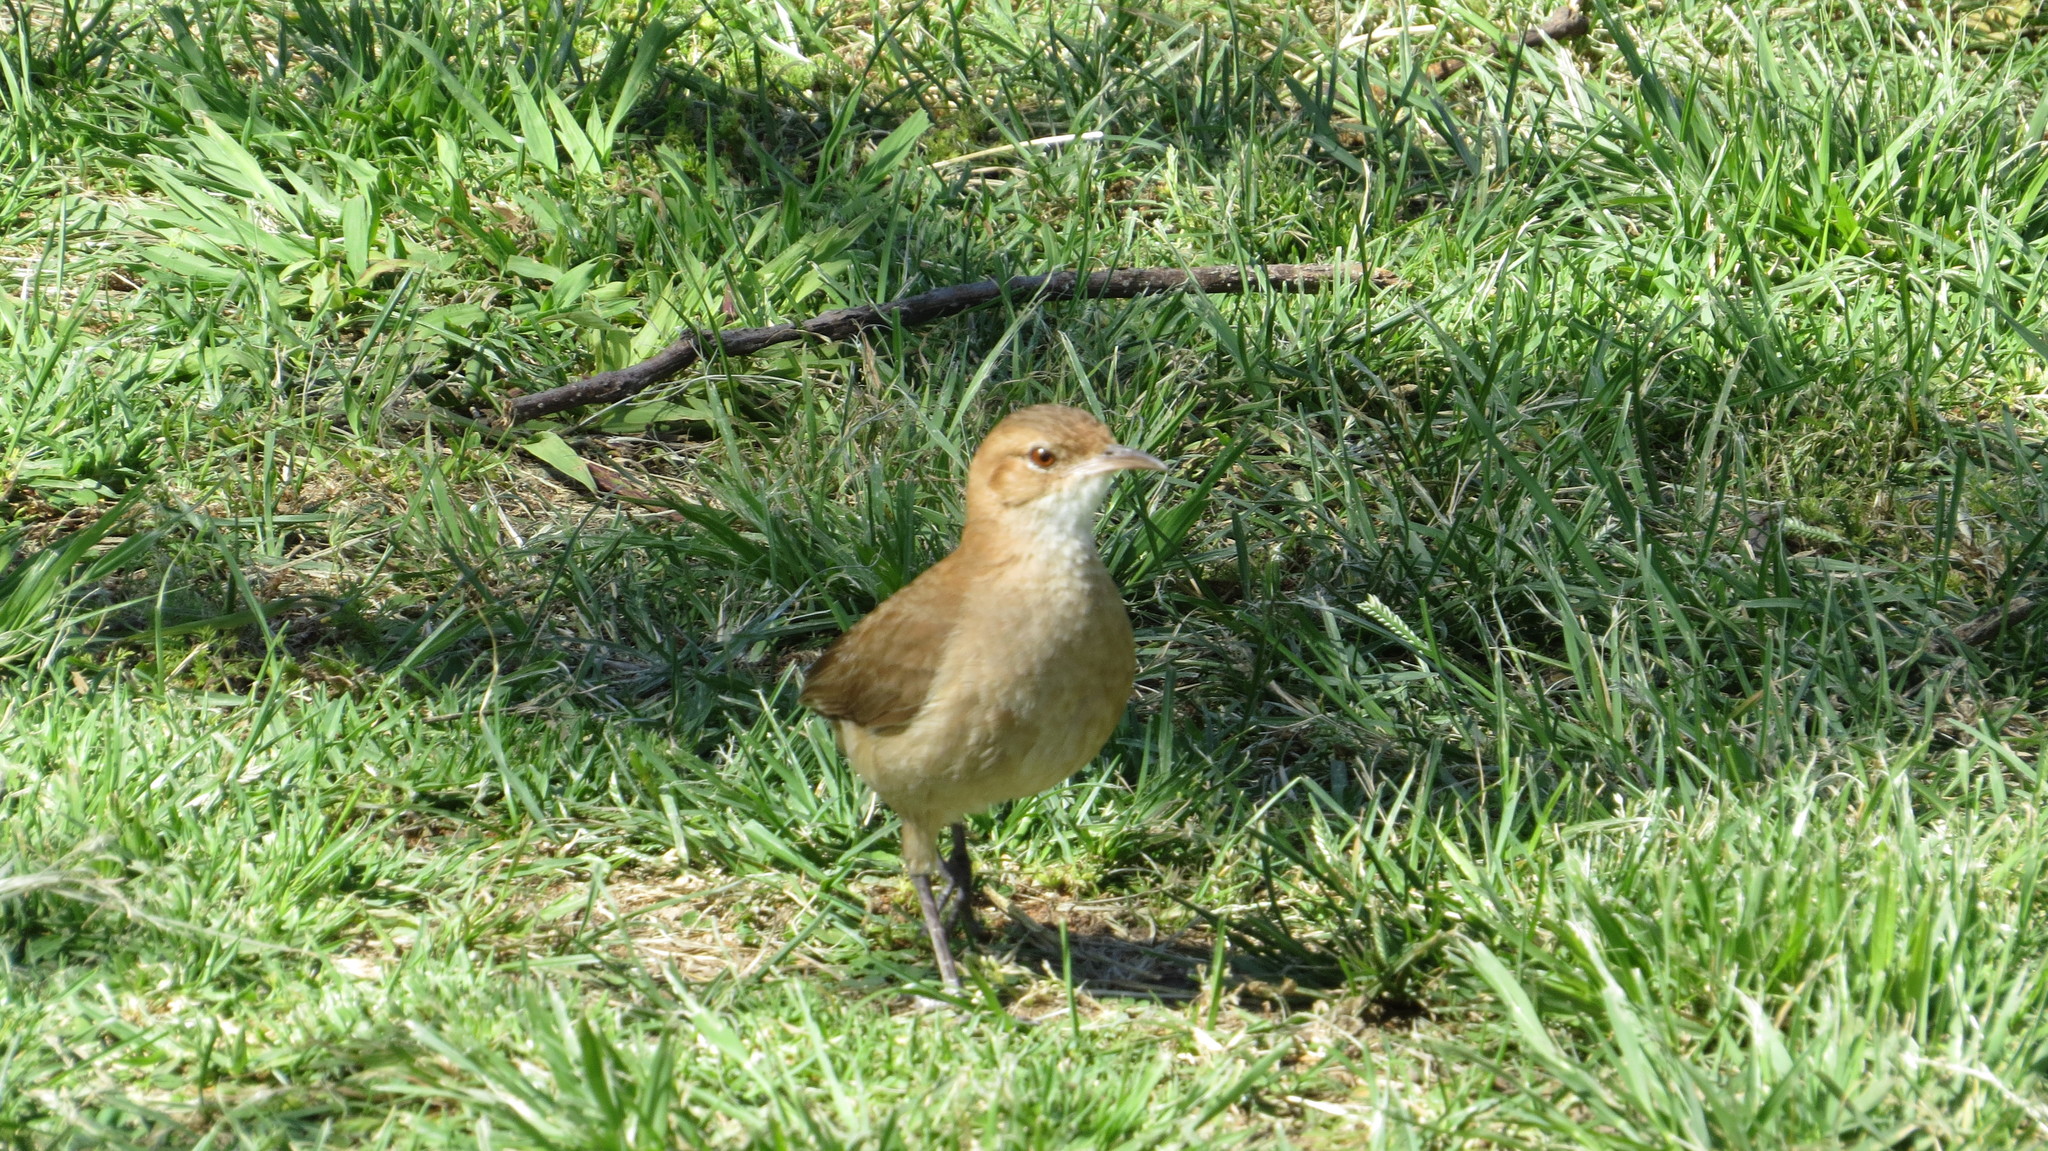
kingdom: Animalia
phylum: Chordata
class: Aves
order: Passeriformes
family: Furnariidae
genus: Furnarius
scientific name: Furnarius rufus
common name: Rufous hornero
